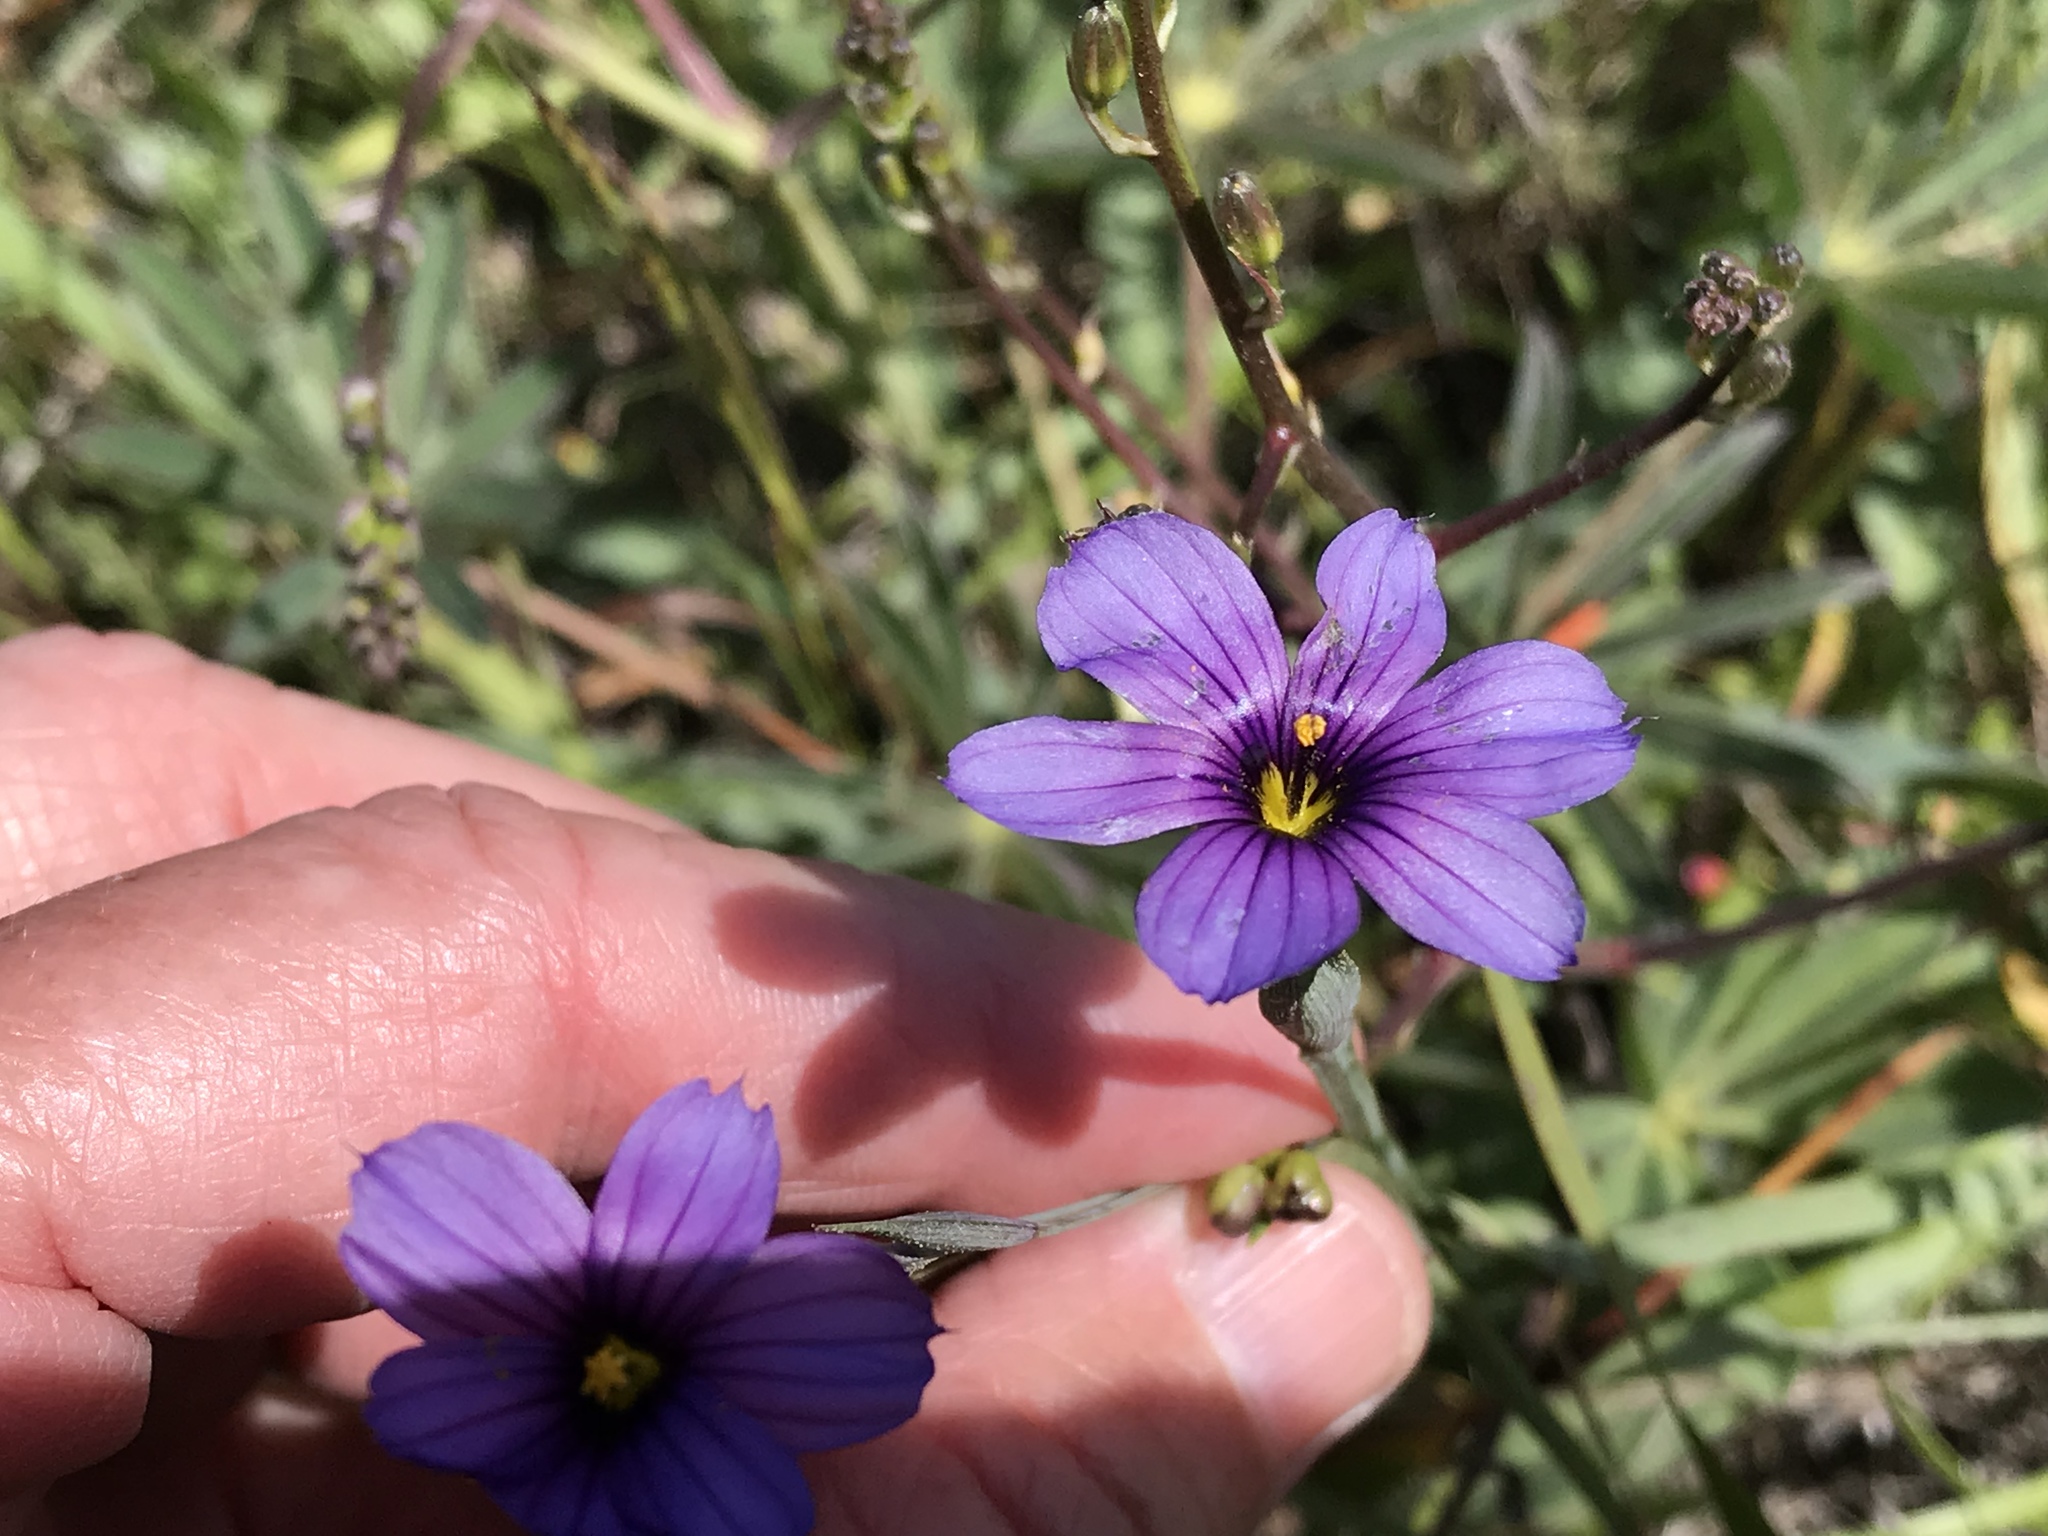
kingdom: Plantae
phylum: Tracheophyta
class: Liliopsida
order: Asparagales
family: Iridaceae
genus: Sisyrinchium
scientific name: Sisyrinchium bellum
